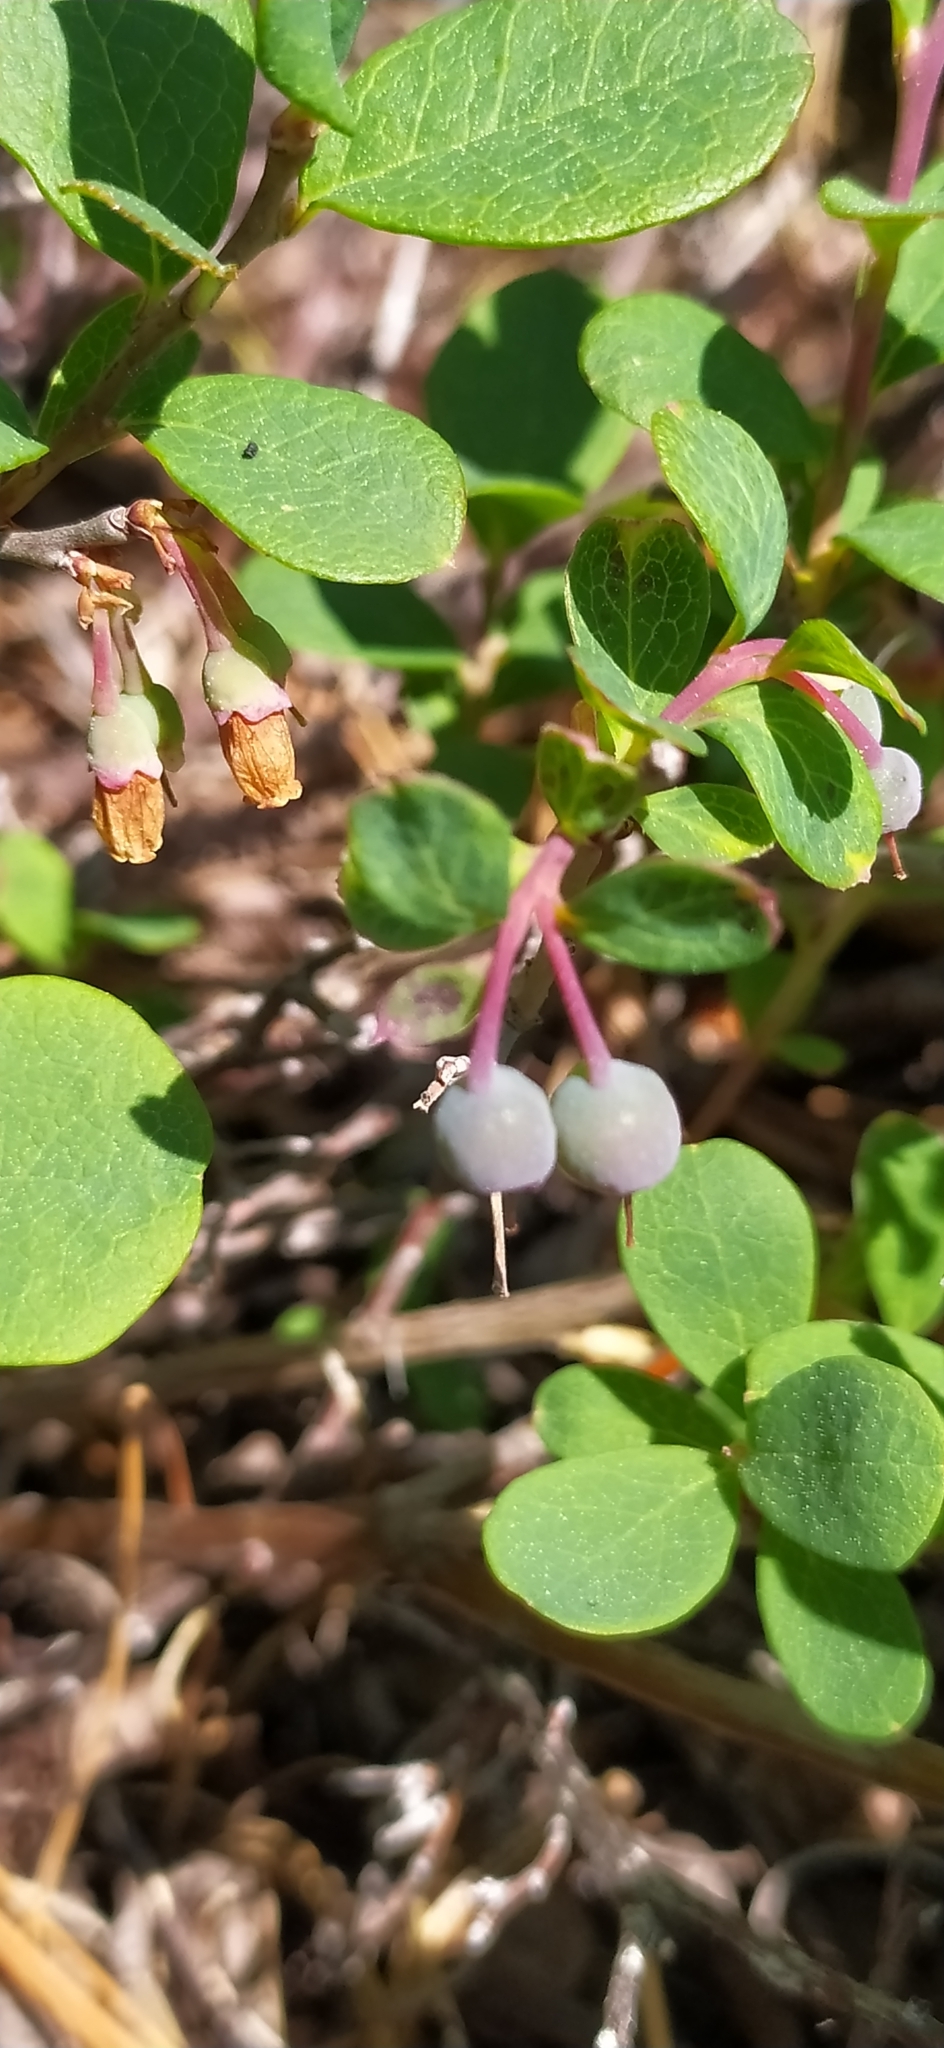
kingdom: Plantae
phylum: Tracheophyta
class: Magnoliopsida
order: Ericales
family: Ericaceae
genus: Vaccinium
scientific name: Vaccinium uliginosum
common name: Bog bilberry
